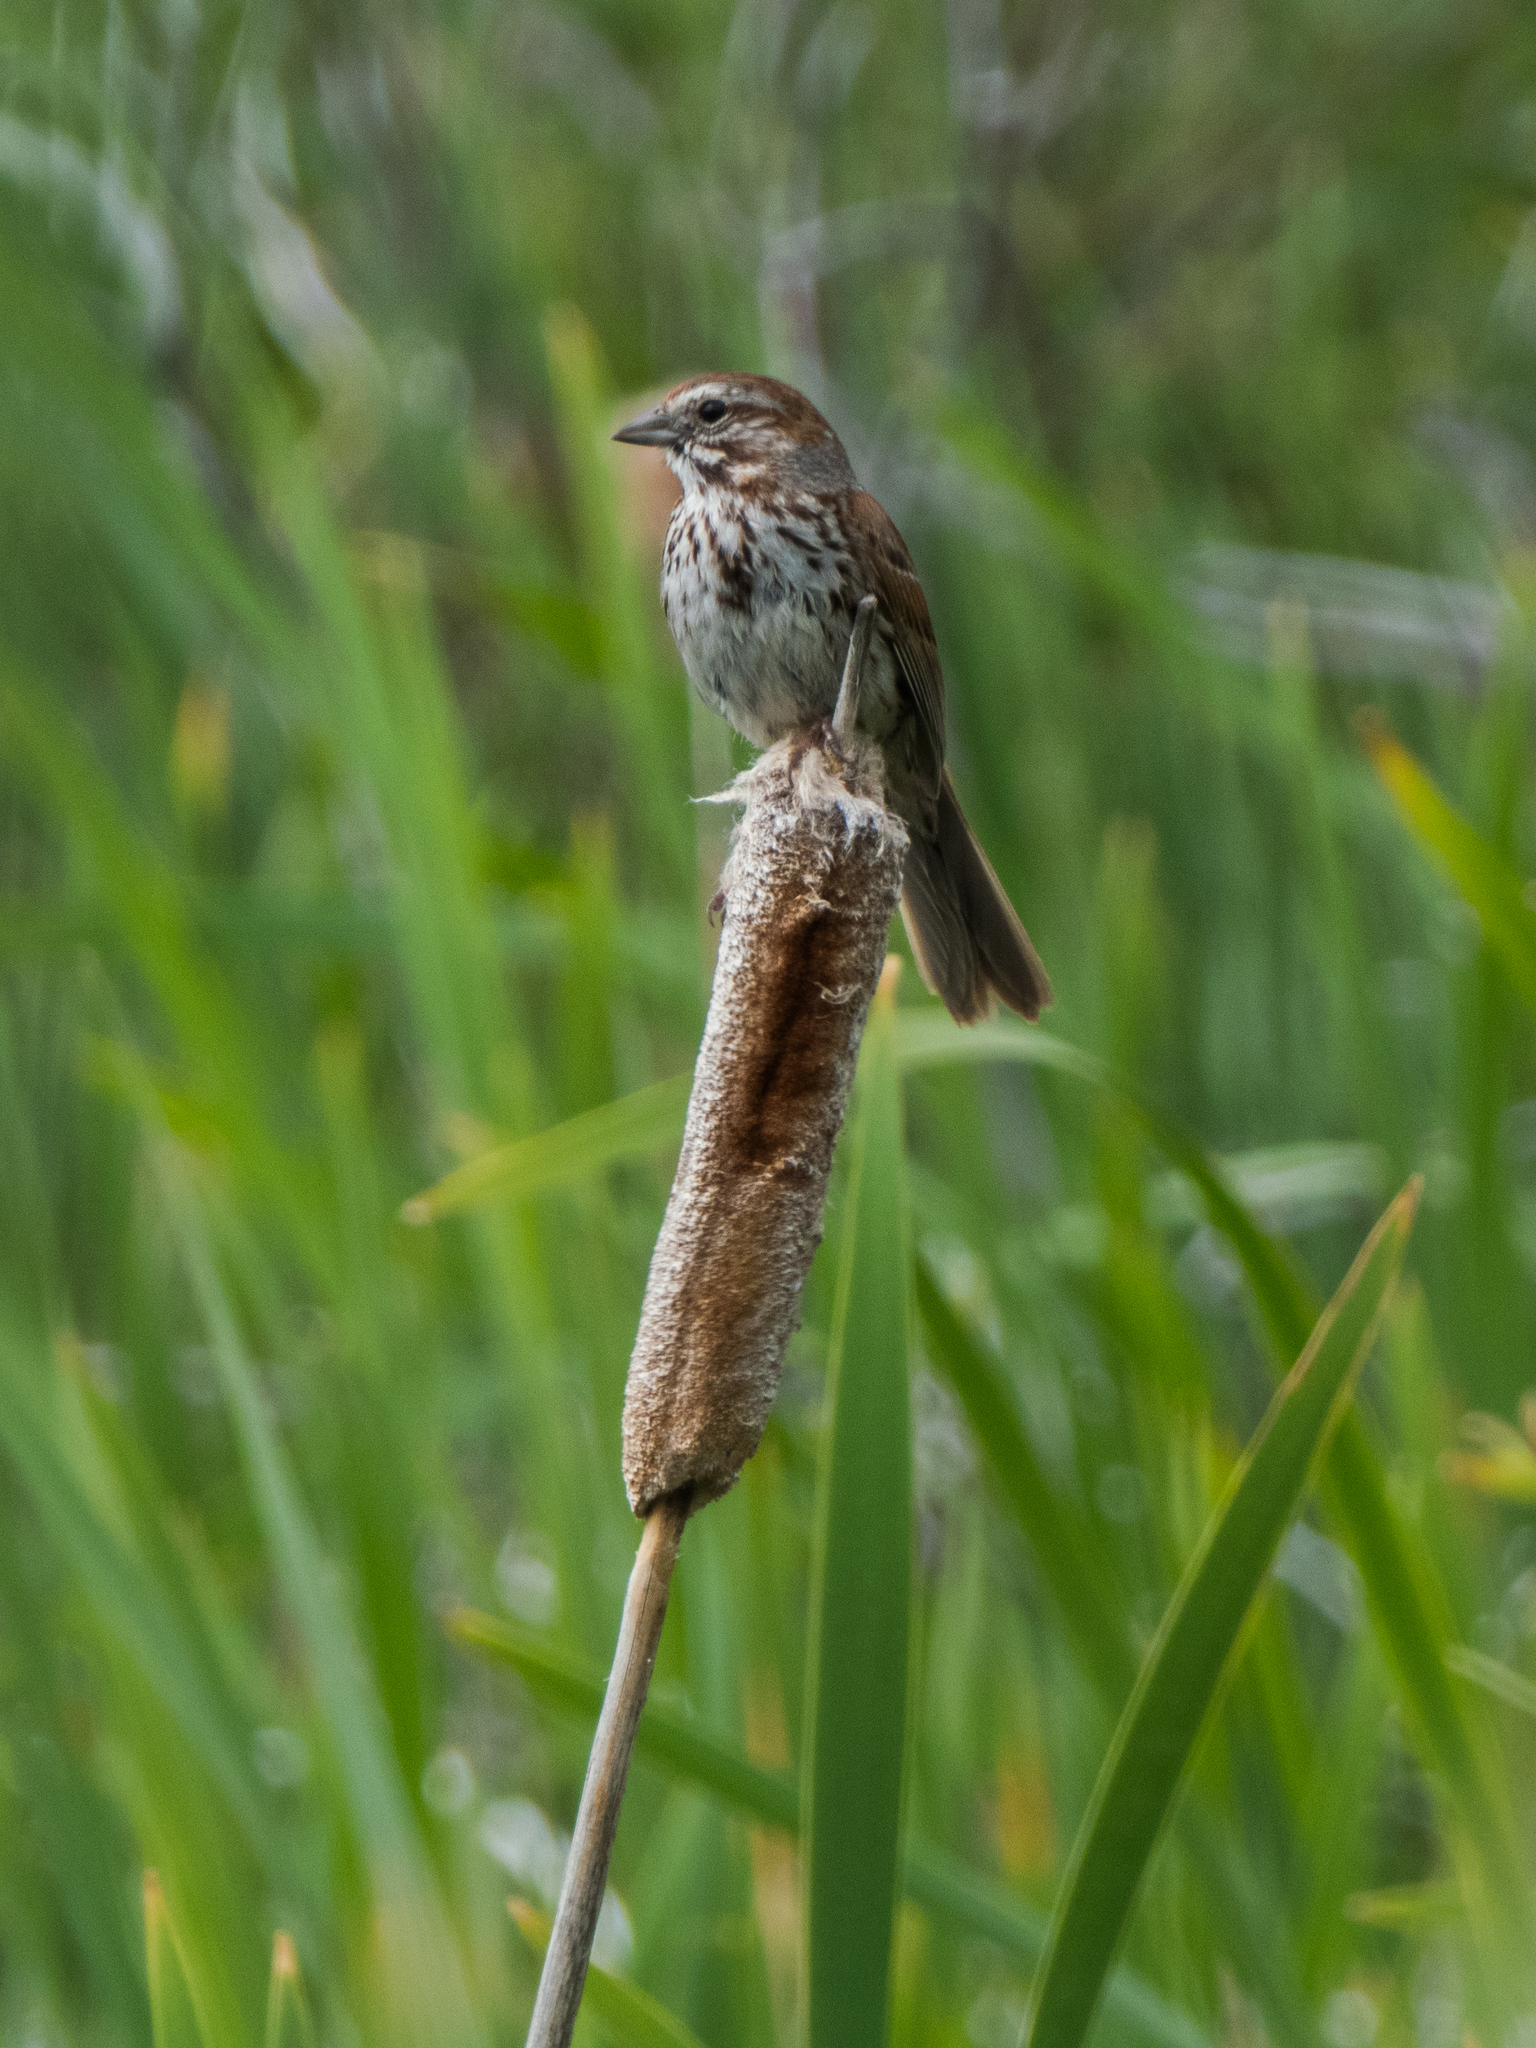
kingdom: Plantae
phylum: Tracheophyta
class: Liliopsida
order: Poales
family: Typhaceae
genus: Typha
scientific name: Typha latifolia
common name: Broadleaf cattail
